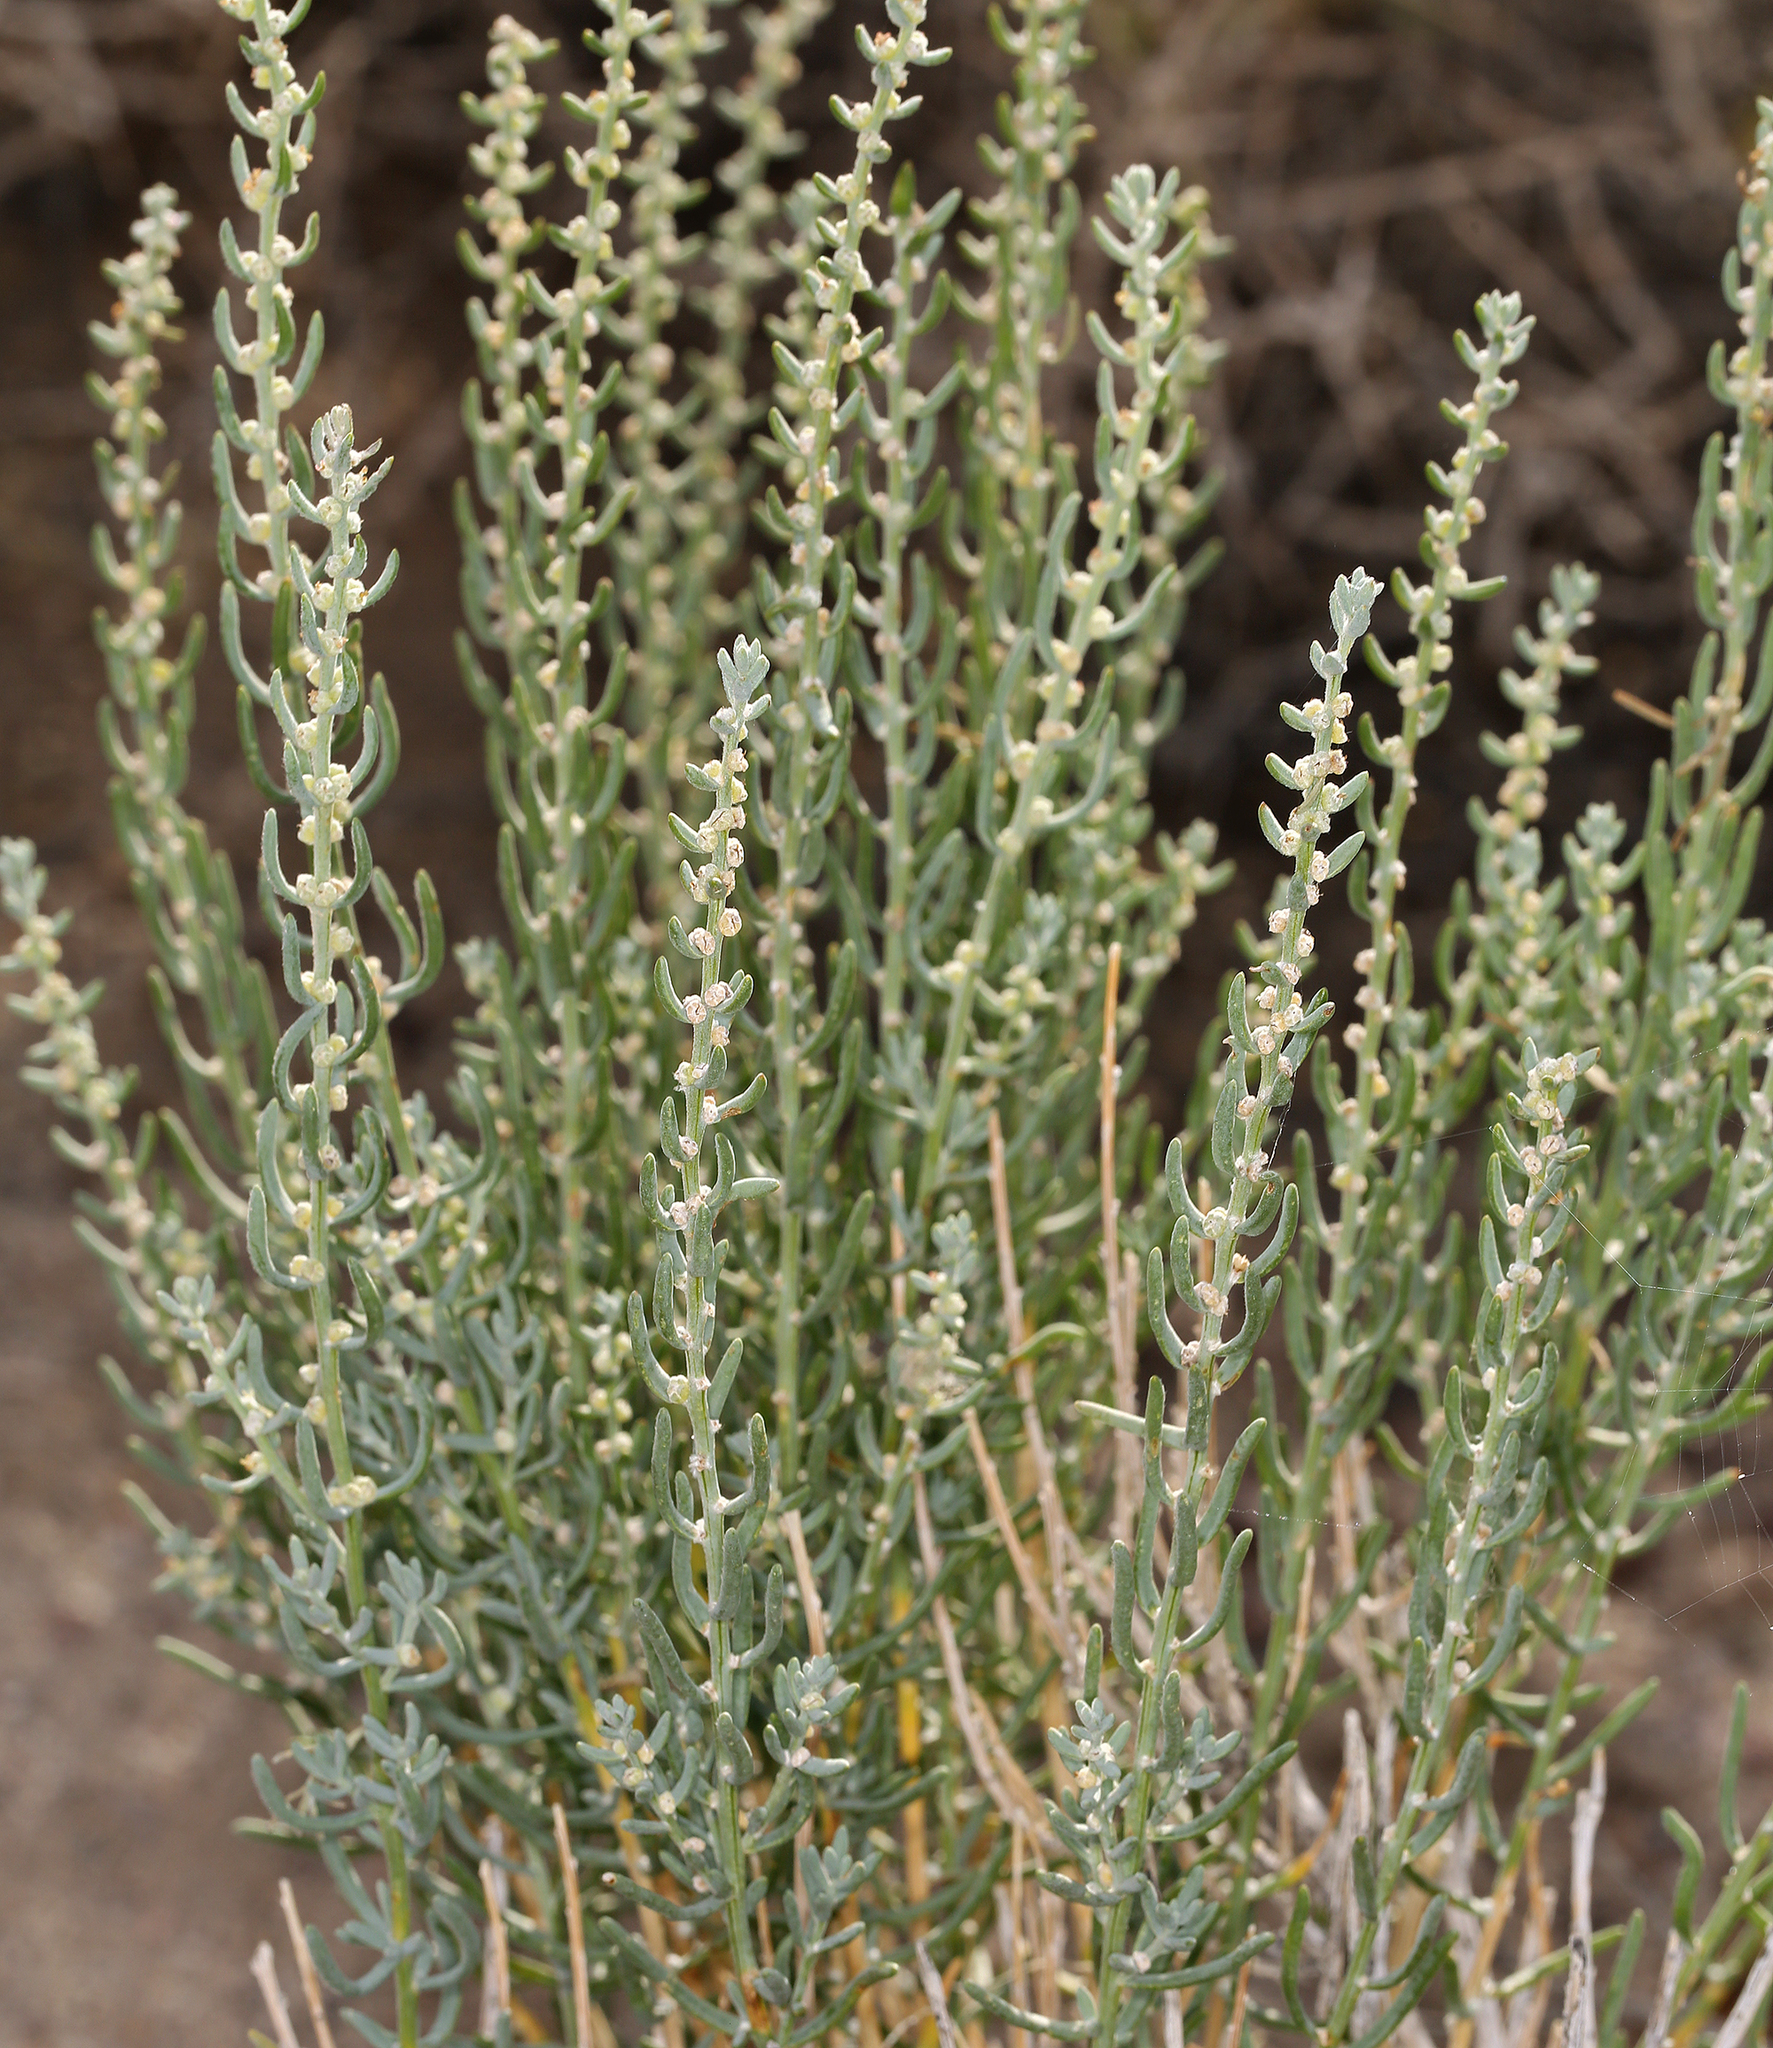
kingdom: Plantae
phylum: Tracheophyta
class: Magnoliopsida
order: Caryophyllales
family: Amaranthaceae
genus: Neokochia
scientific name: Neokochia americana
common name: Perennial summer-cypress
